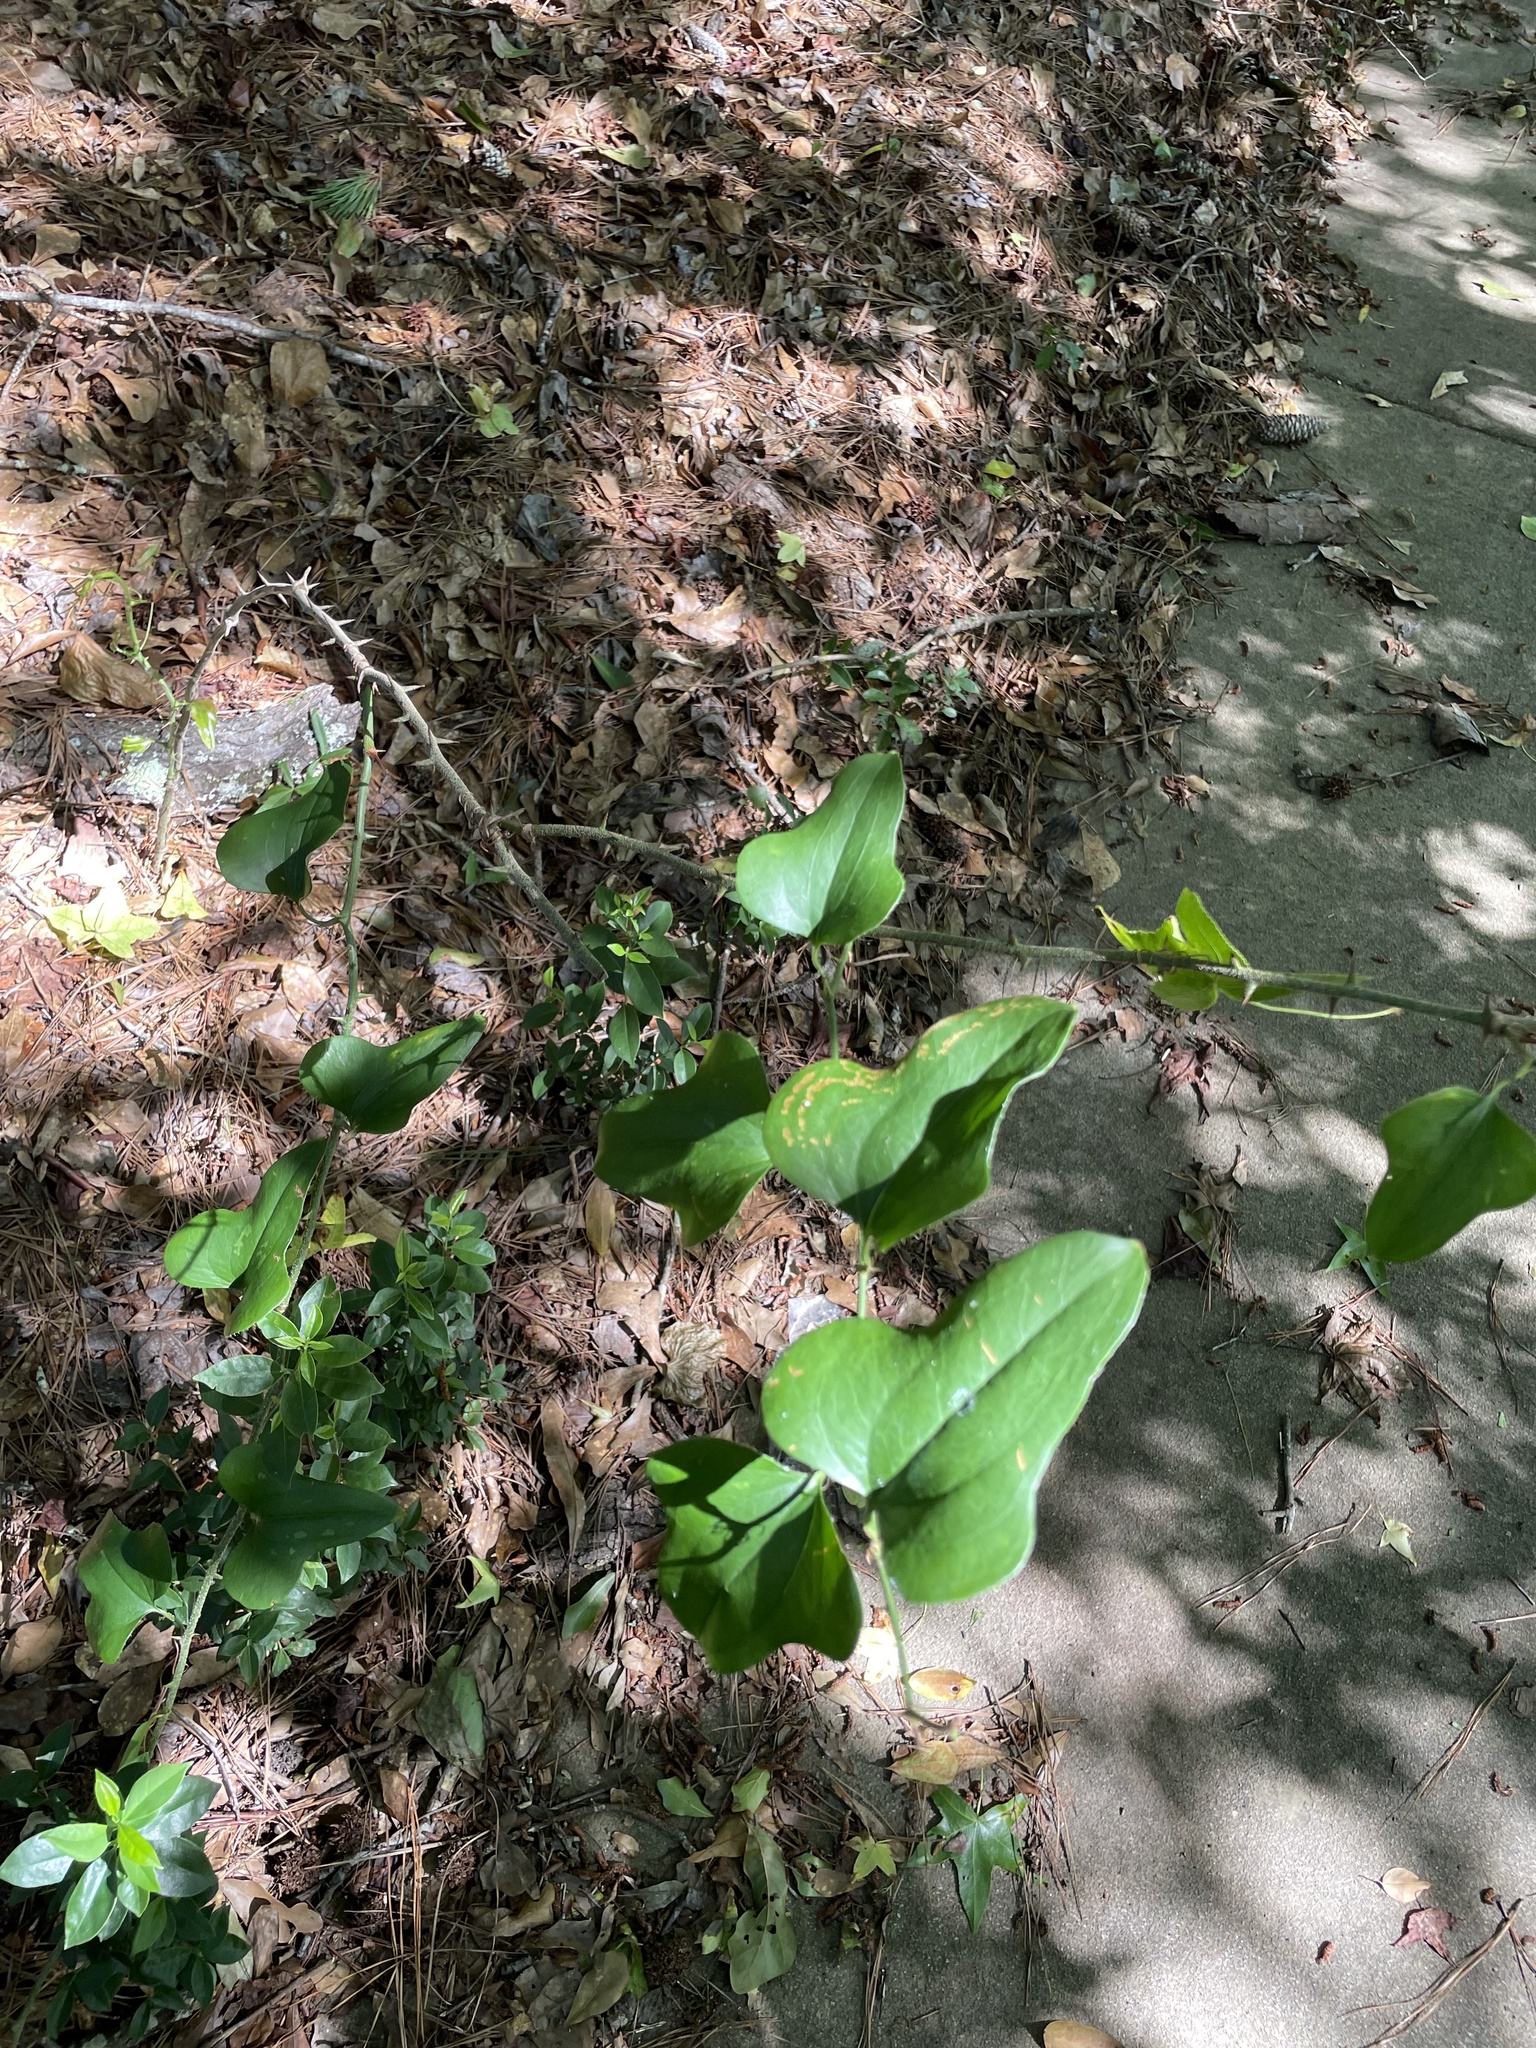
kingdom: Plantae
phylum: Tracheophyta
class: Liliopsida
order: Liliales
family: Smilacaceae
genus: Smilax
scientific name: Smilax bona-nox
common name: Catbrier
